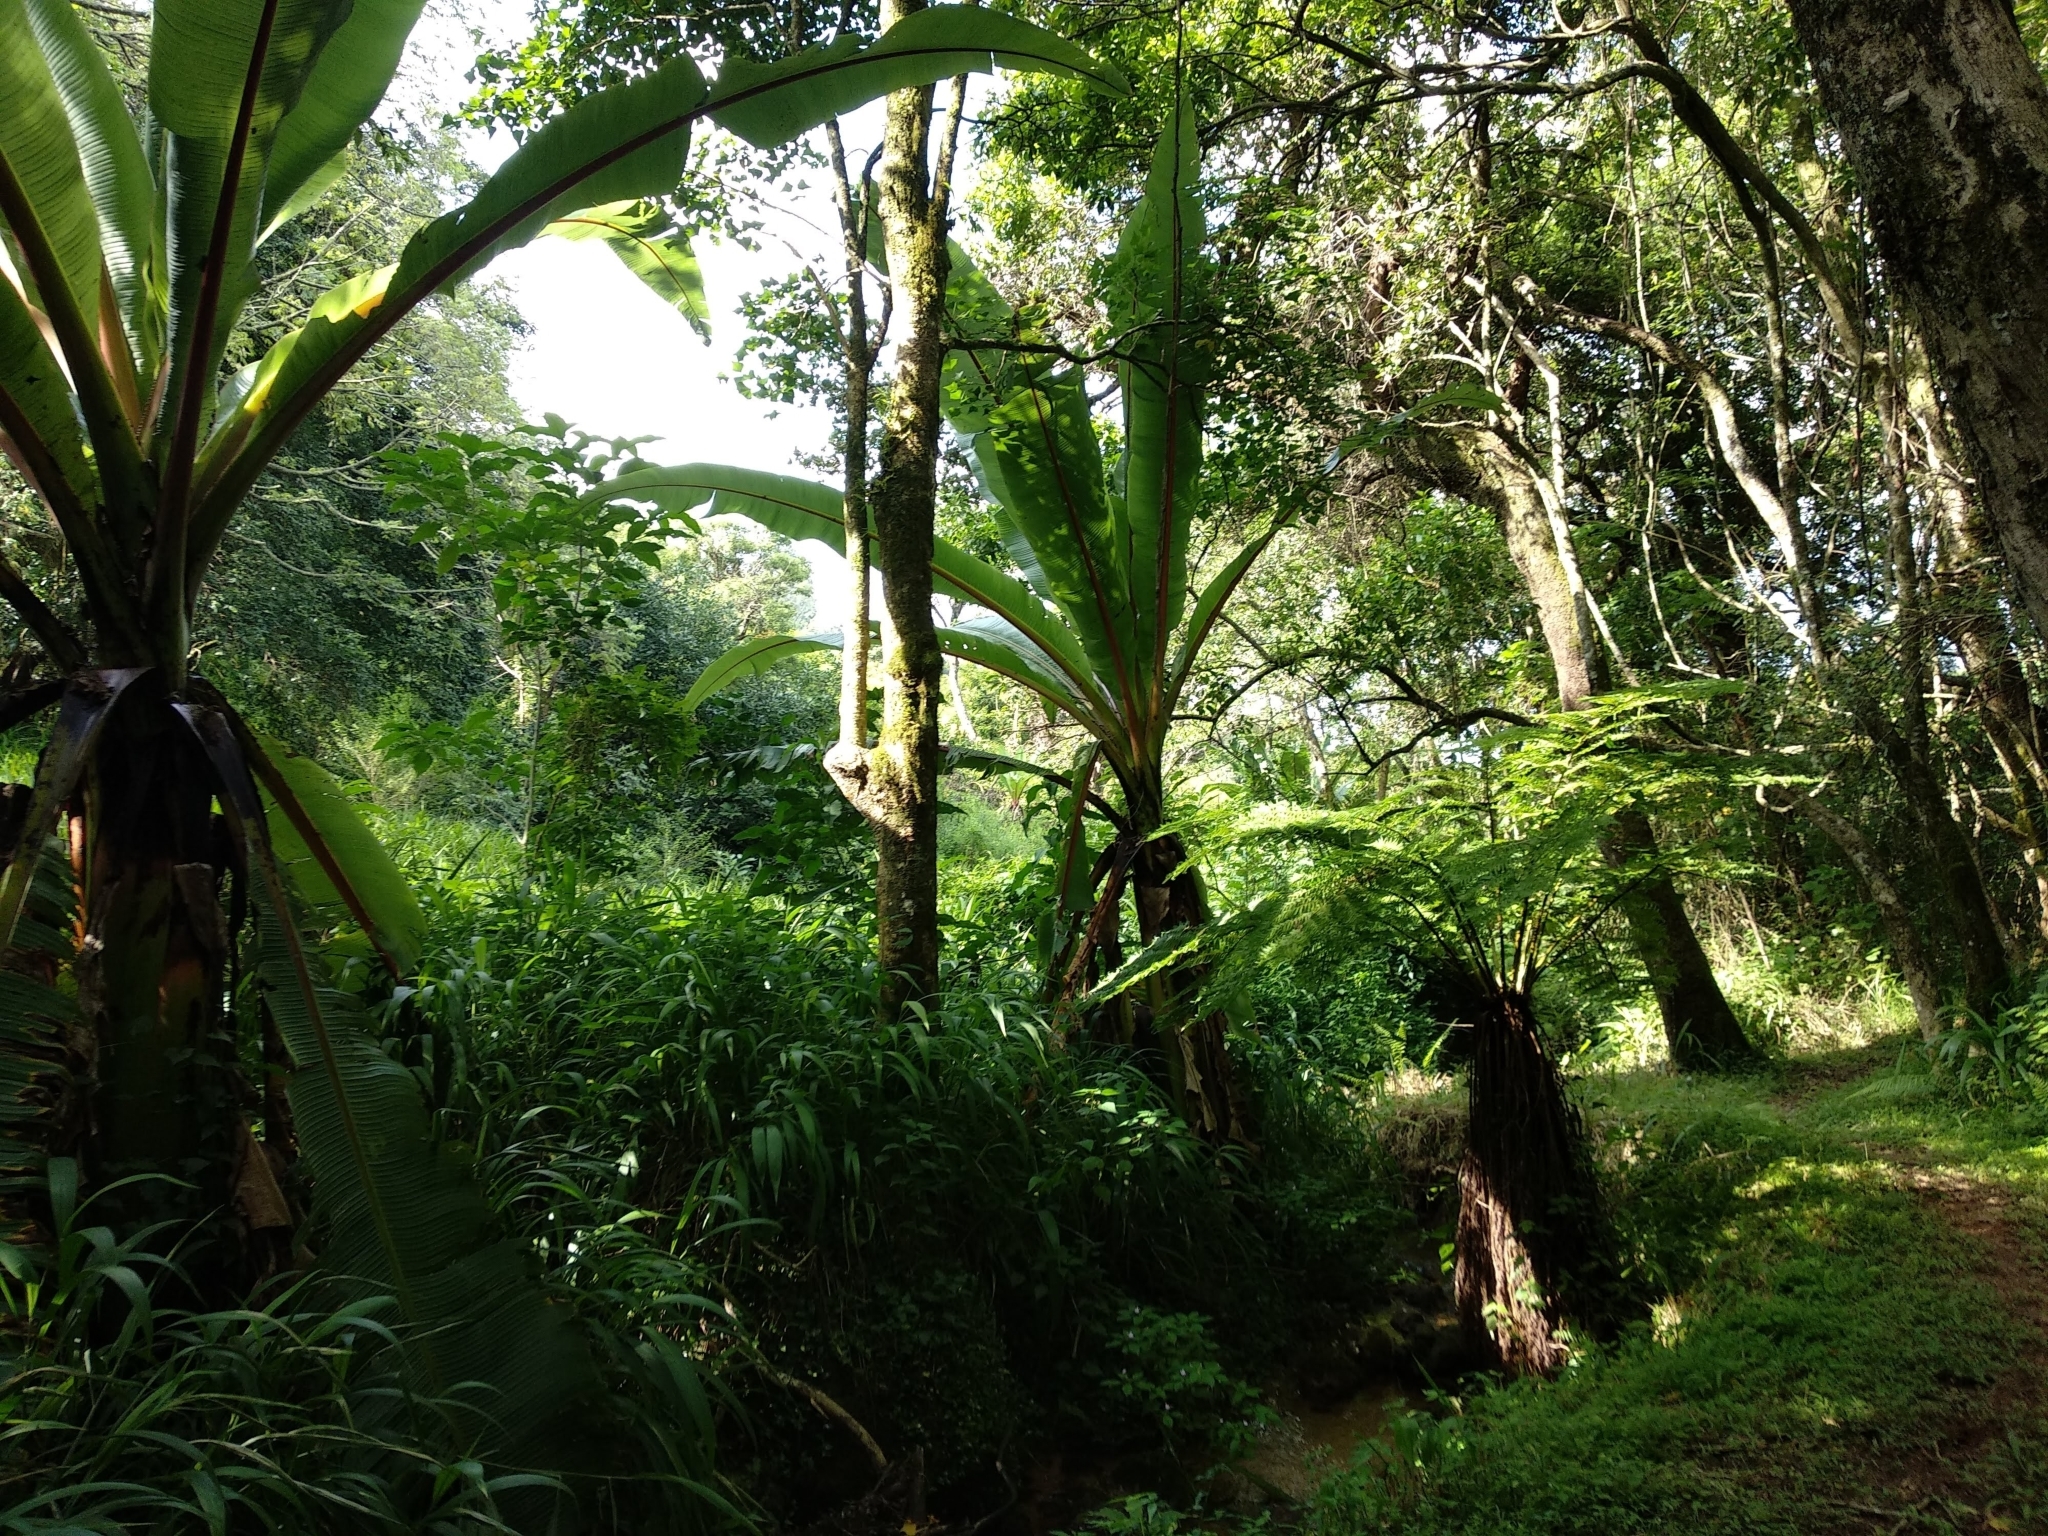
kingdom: Plantae
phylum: Tracheophyta
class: Liliopsida
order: Zingiberales
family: Musaceae
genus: Ensete
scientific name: Ensete ventricosum
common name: Abyssinian banana
